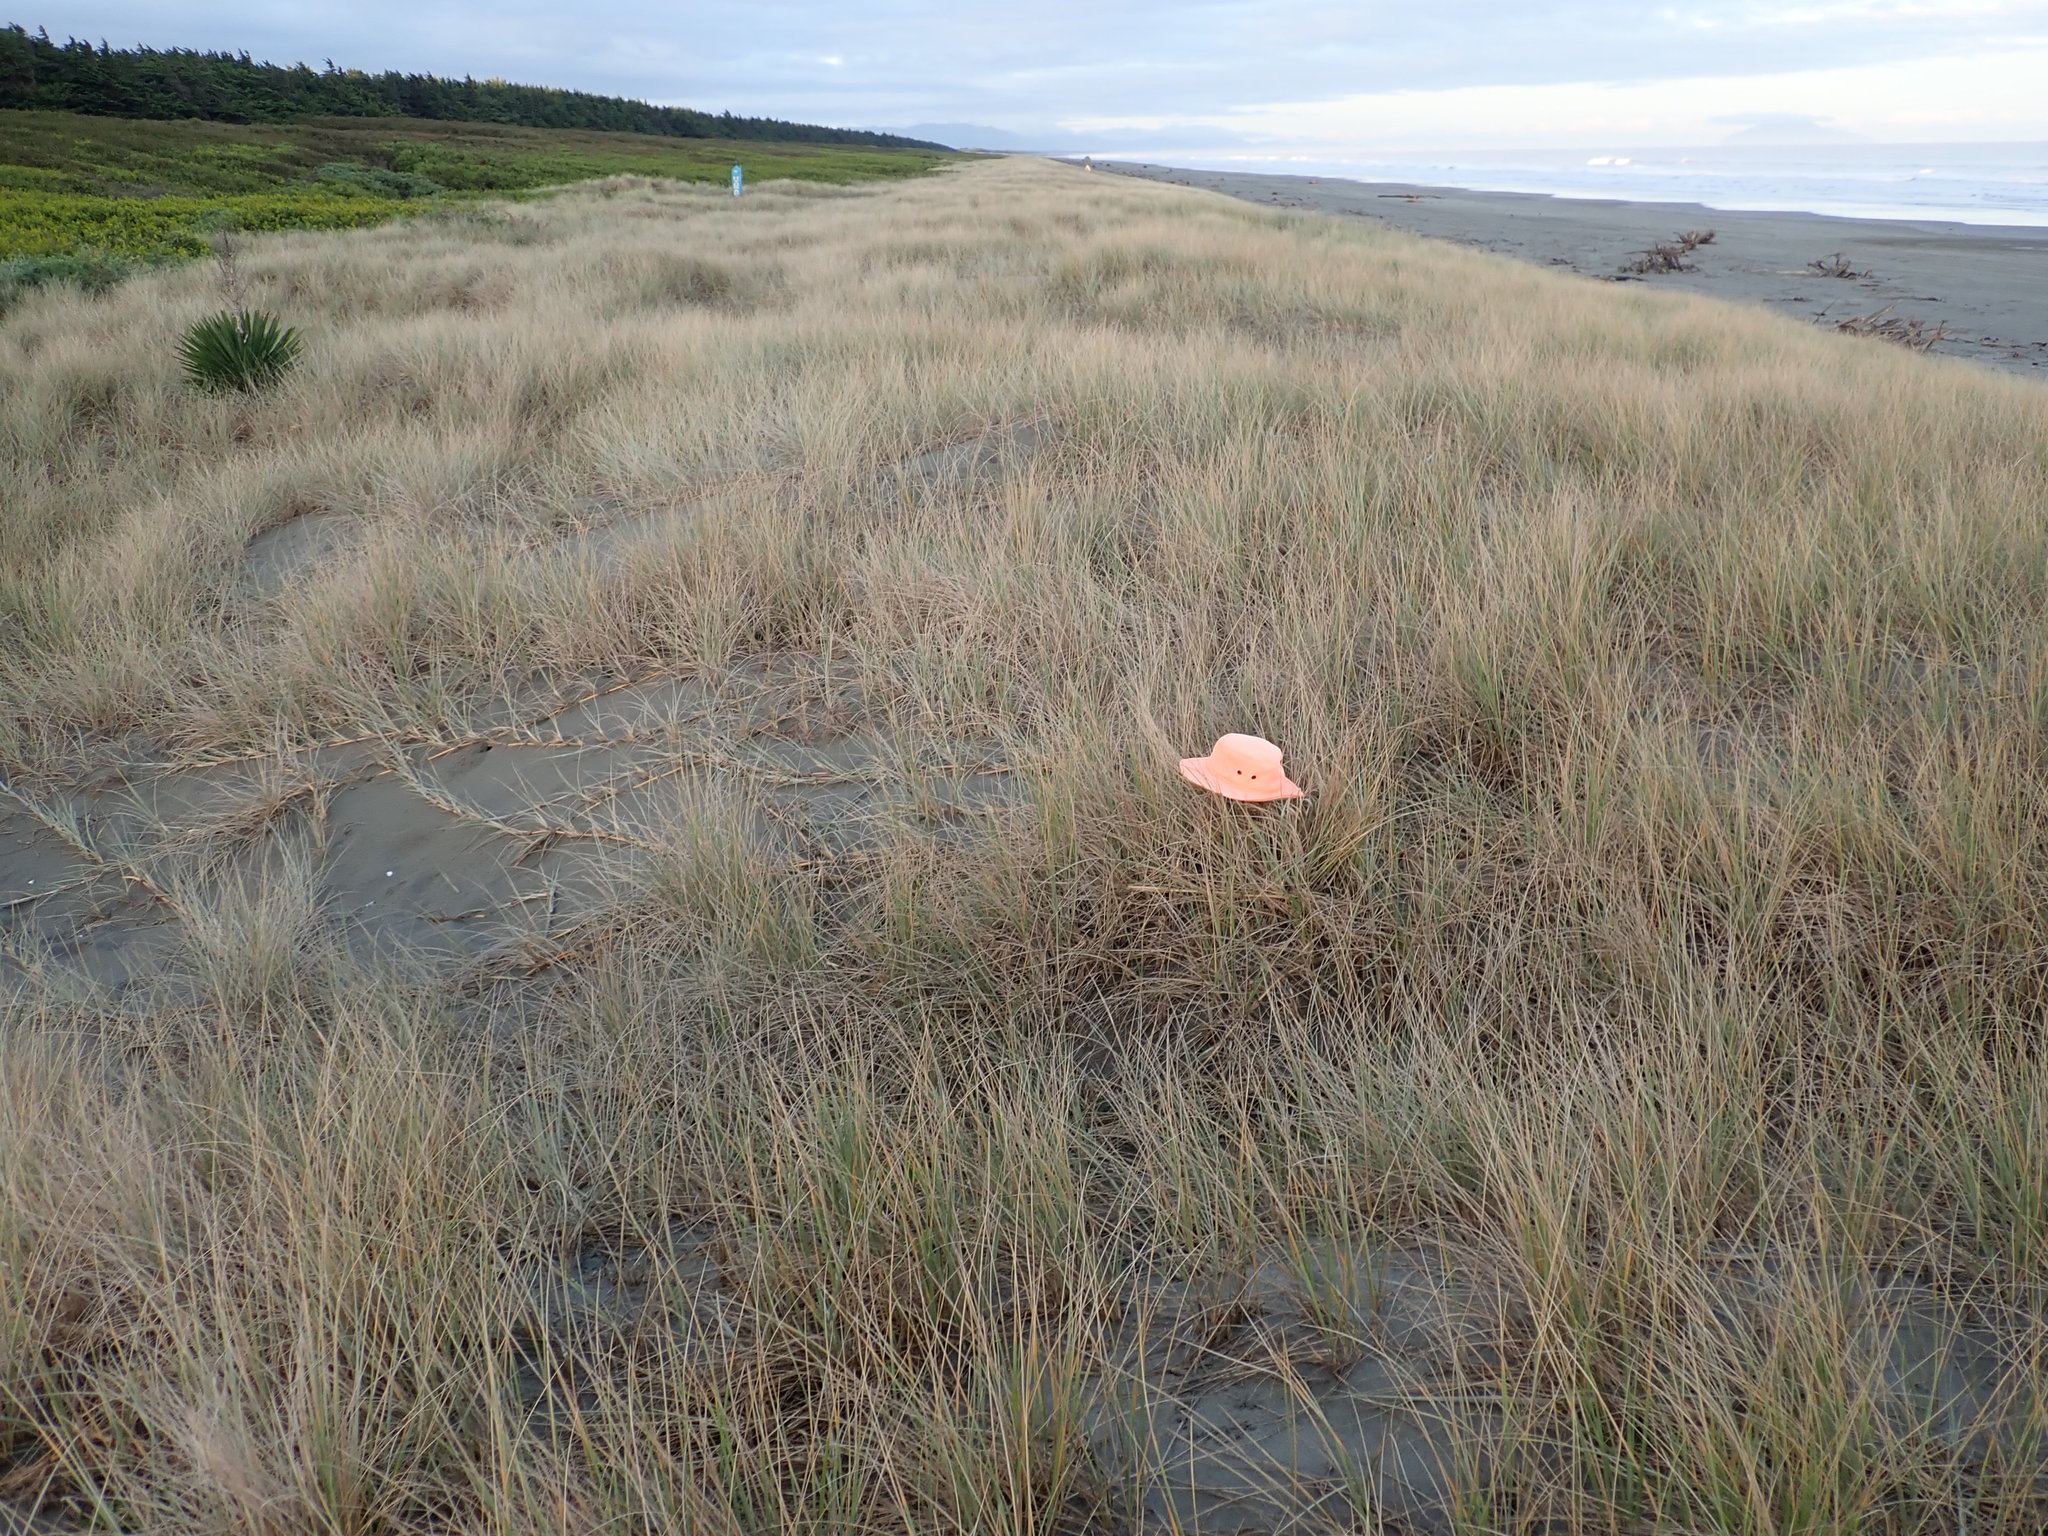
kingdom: Animalia
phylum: Arthropoda
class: Insecta
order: Dermaptera
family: Forficulidae
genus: Forficula
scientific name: Forficula
